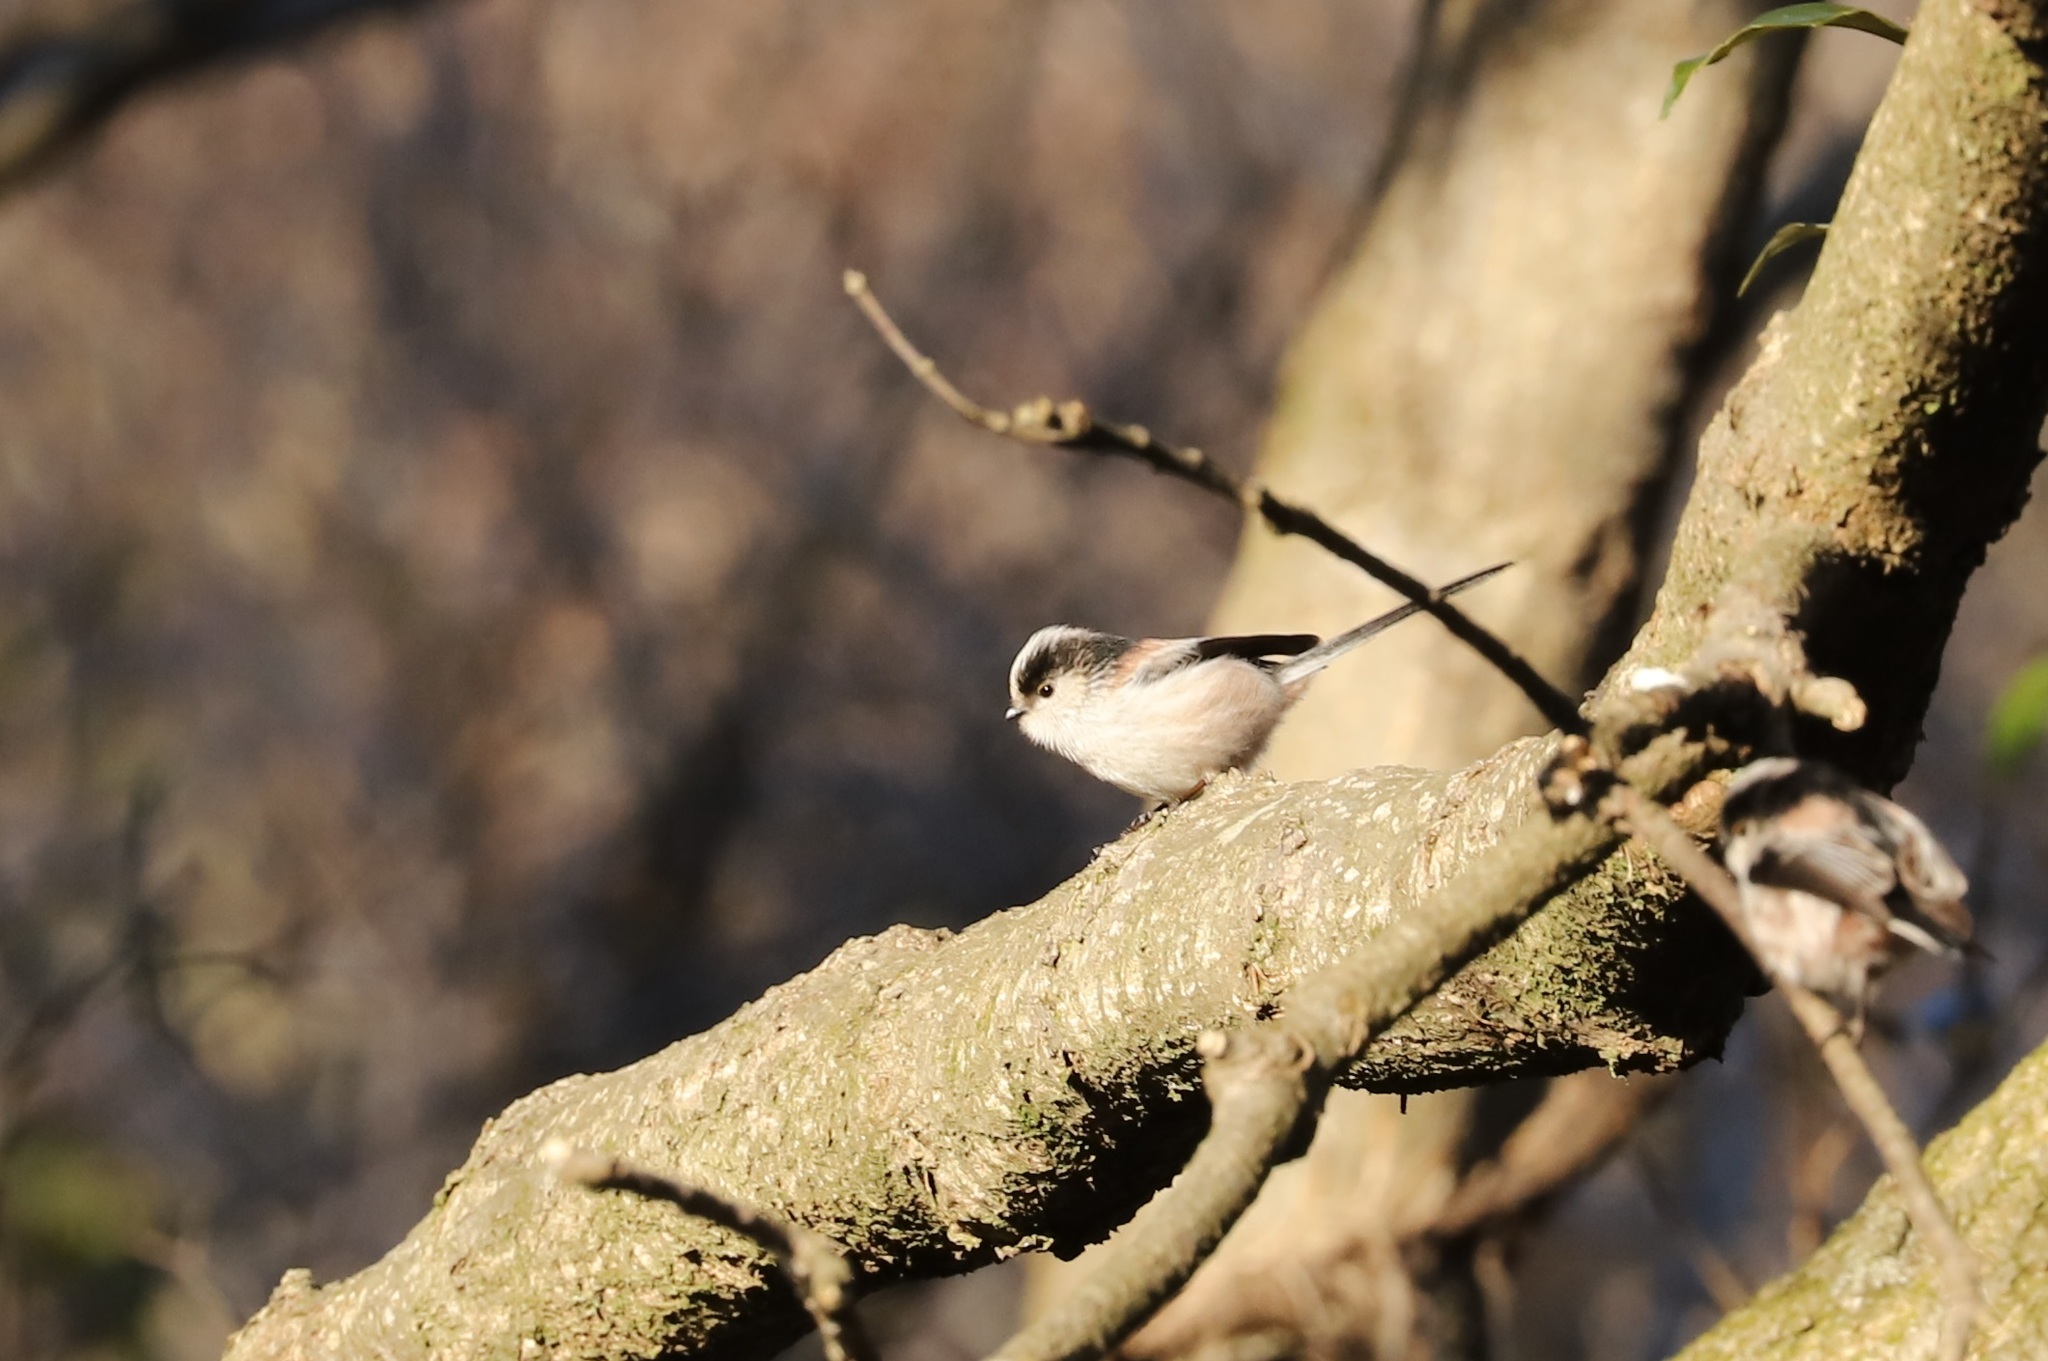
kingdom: Animalia
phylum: Chordata
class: Aves
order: Passeriformes
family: Aegithalidae
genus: Aegithalos
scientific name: Aegithalos caudatus
